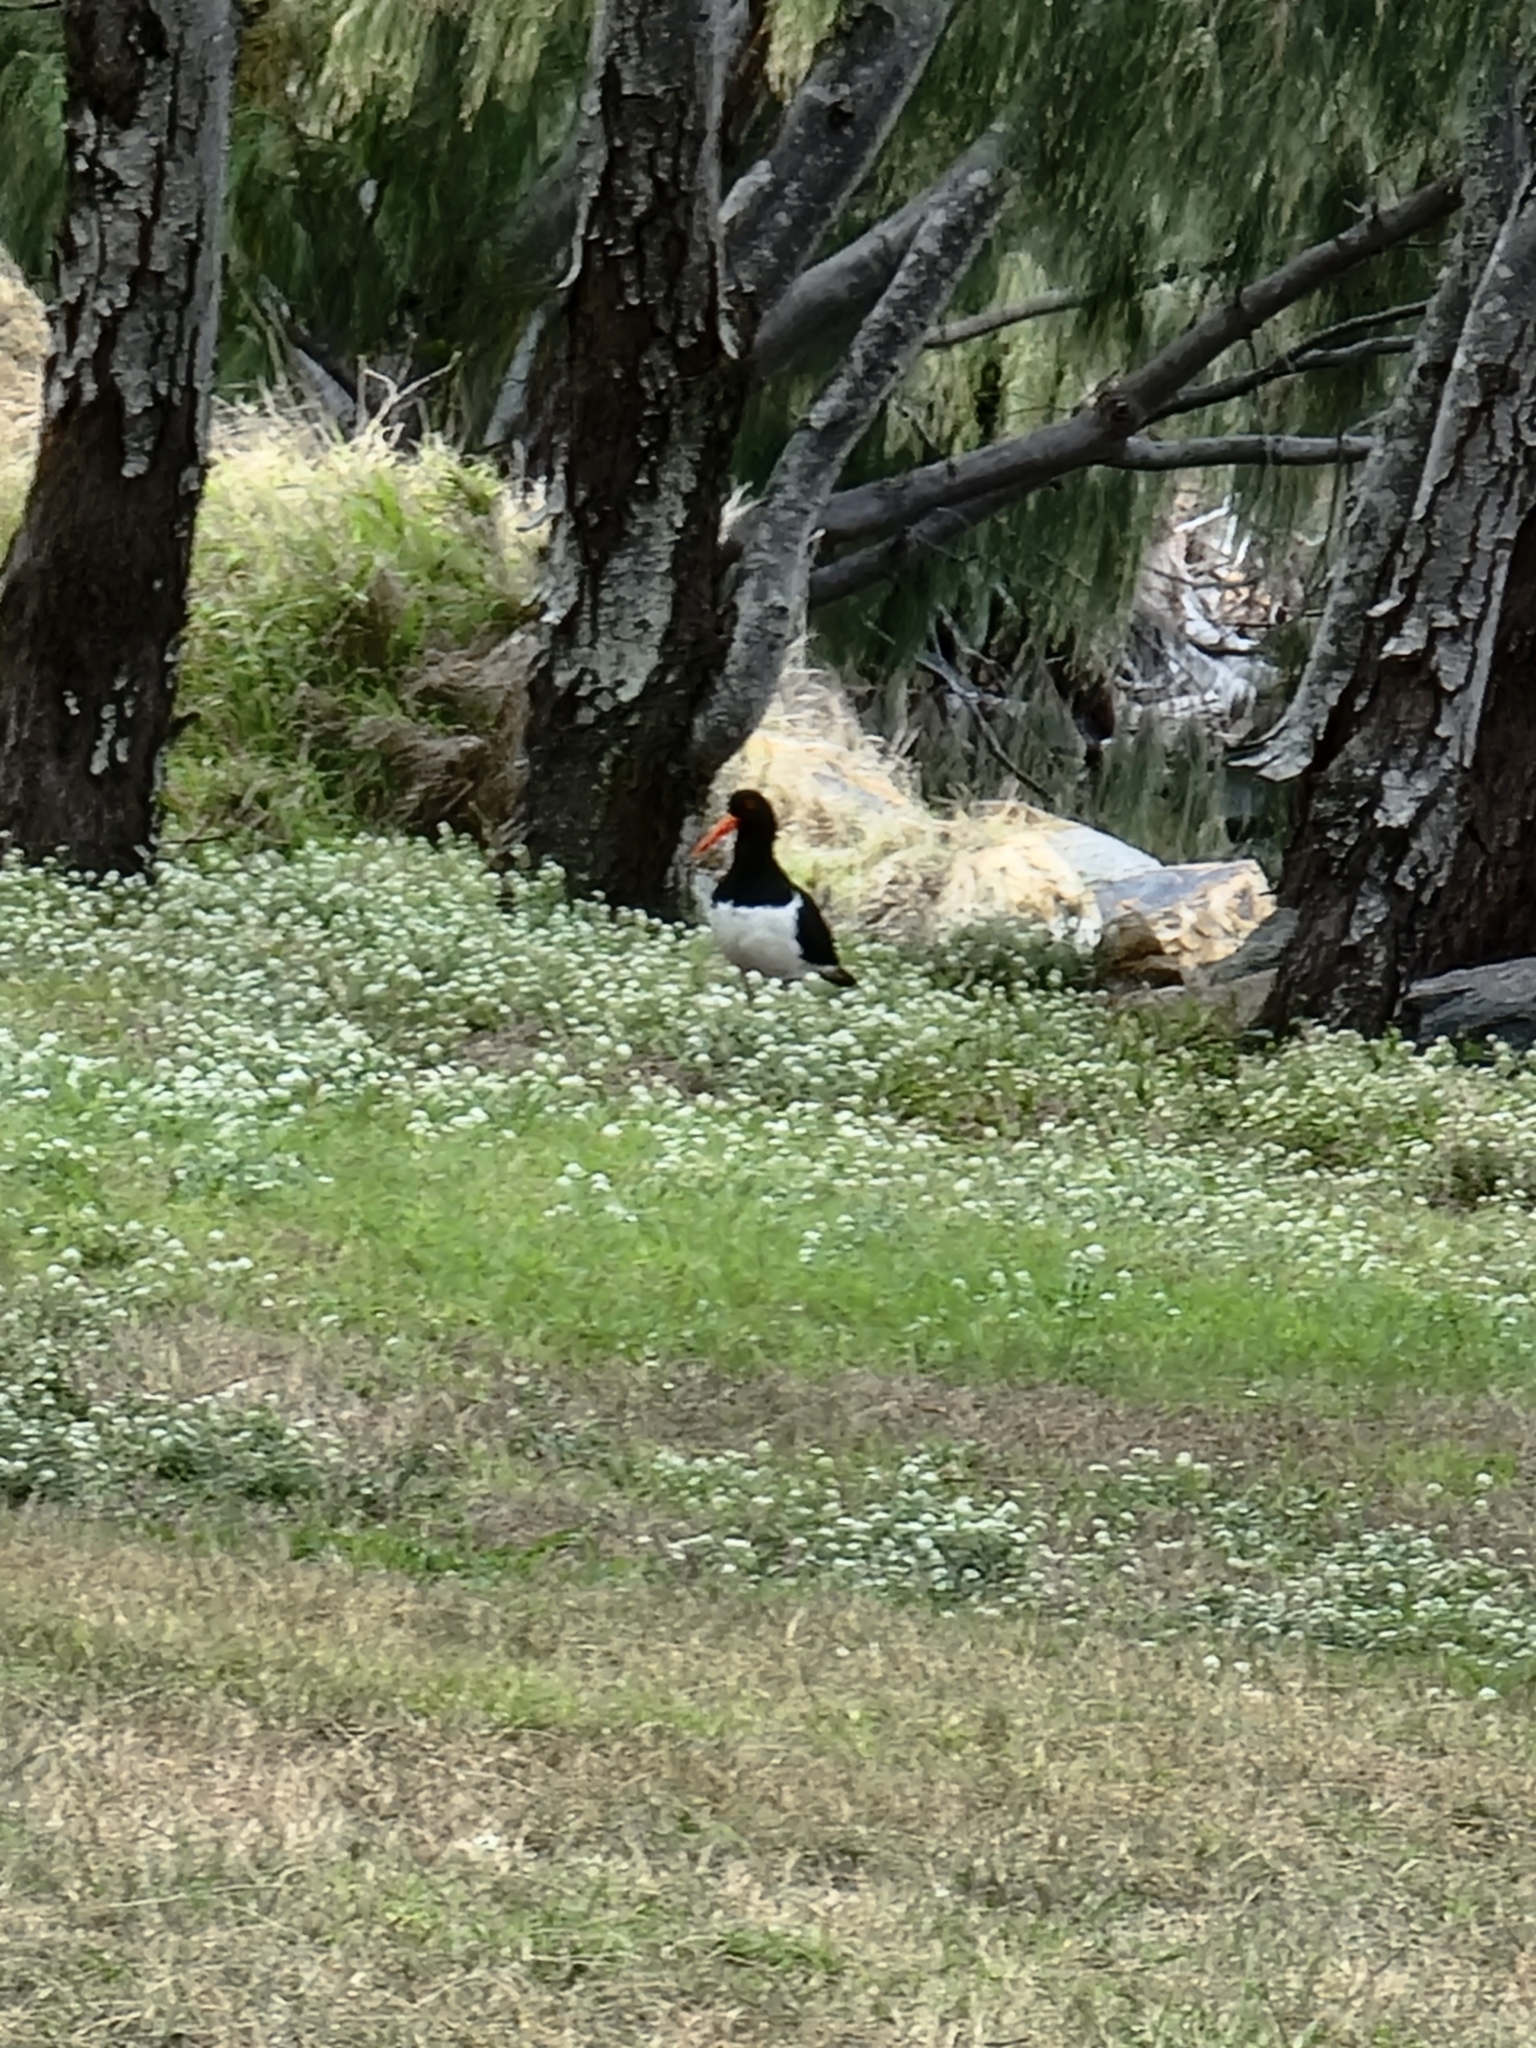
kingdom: Animalia
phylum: Chordata
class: Aves
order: Charadriiformes
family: Haematopodidae
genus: Haematopus
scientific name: Haematopus longirostris
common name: Pied oystercatcher
